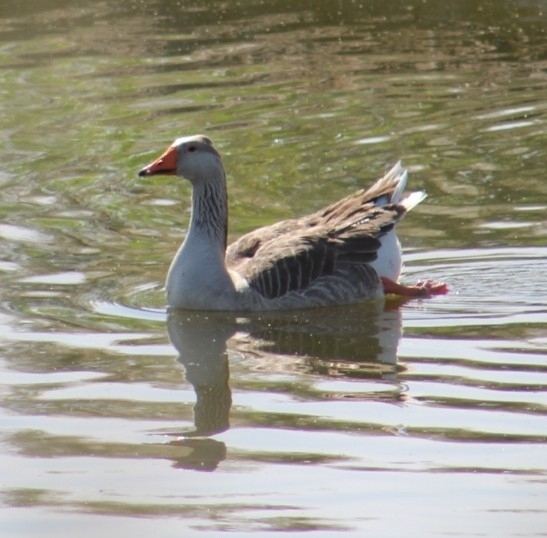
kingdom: Animalia
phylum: Chordata
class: Aves
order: Anseriformes
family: Anatidae
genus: Anser
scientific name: Anser anser
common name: Greylag goose
